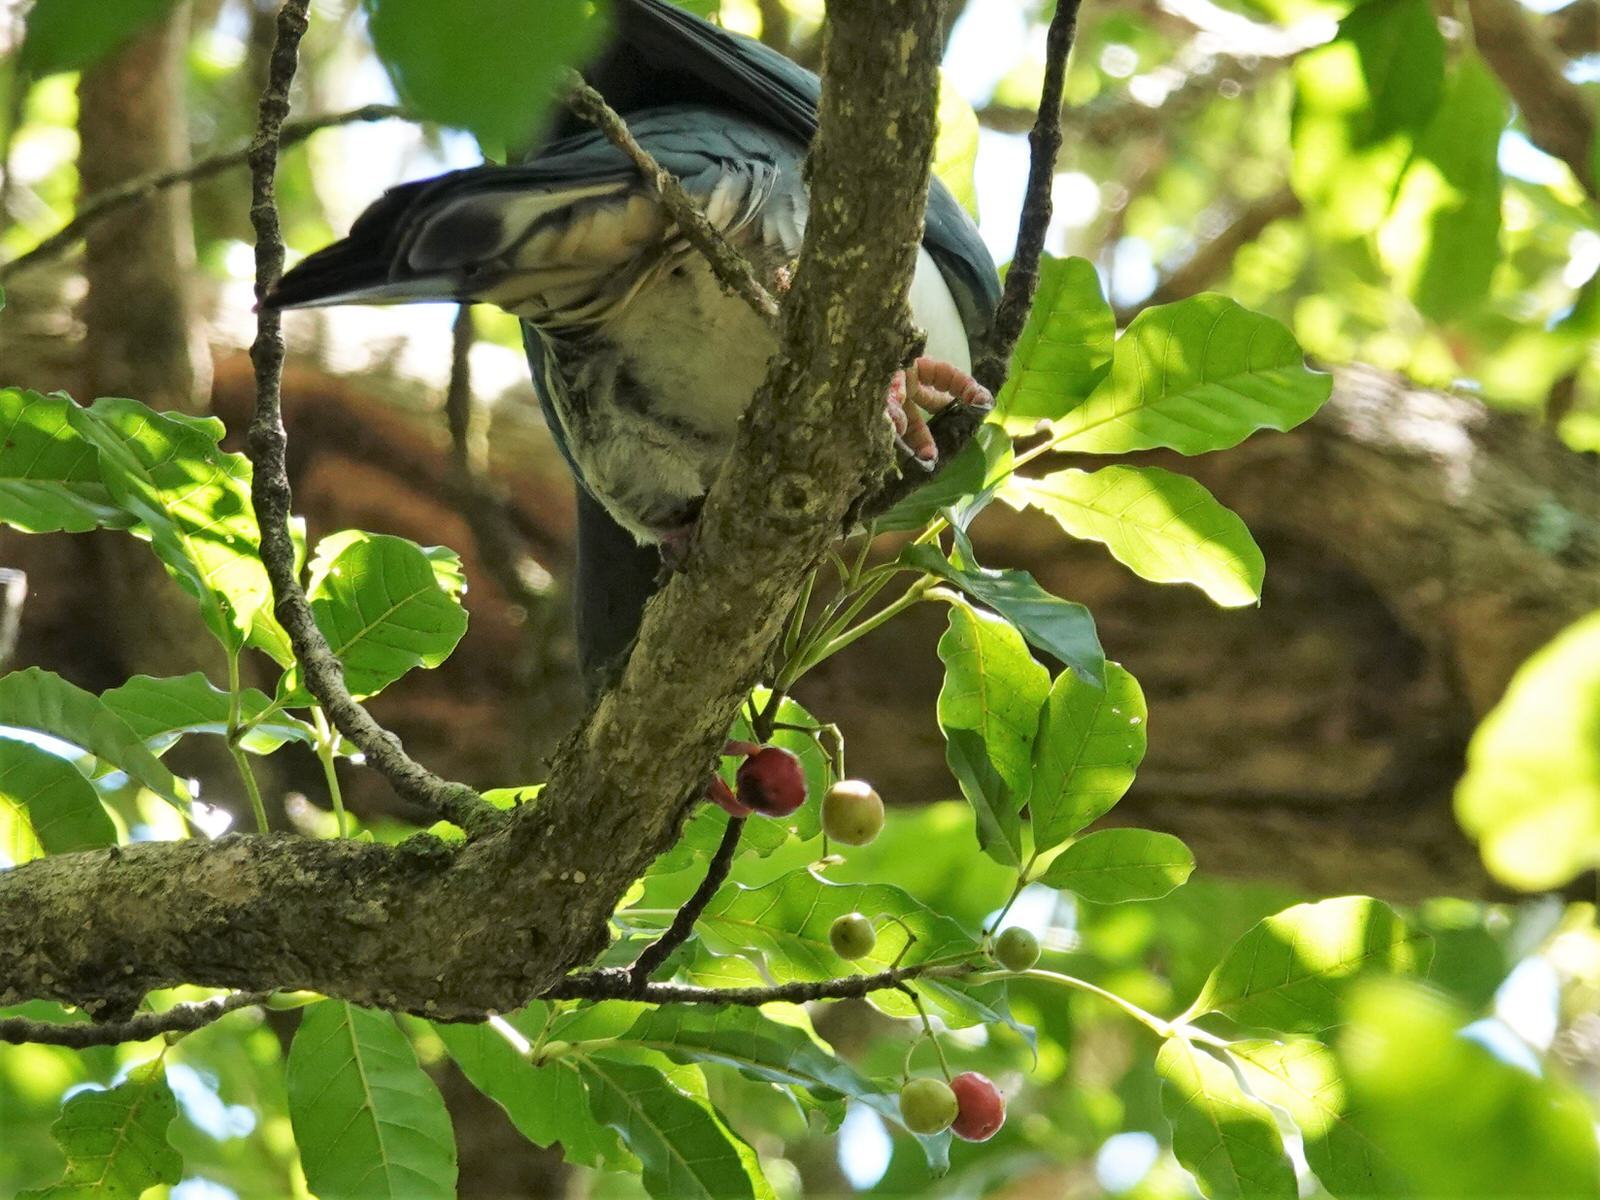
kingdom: Animalia
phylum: Chordata
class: Aves
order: Columbiformes
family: Columbidae
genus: Hemiphaga
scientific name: Hemiphaga novaeseelandiae
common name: New zealand pigeon
